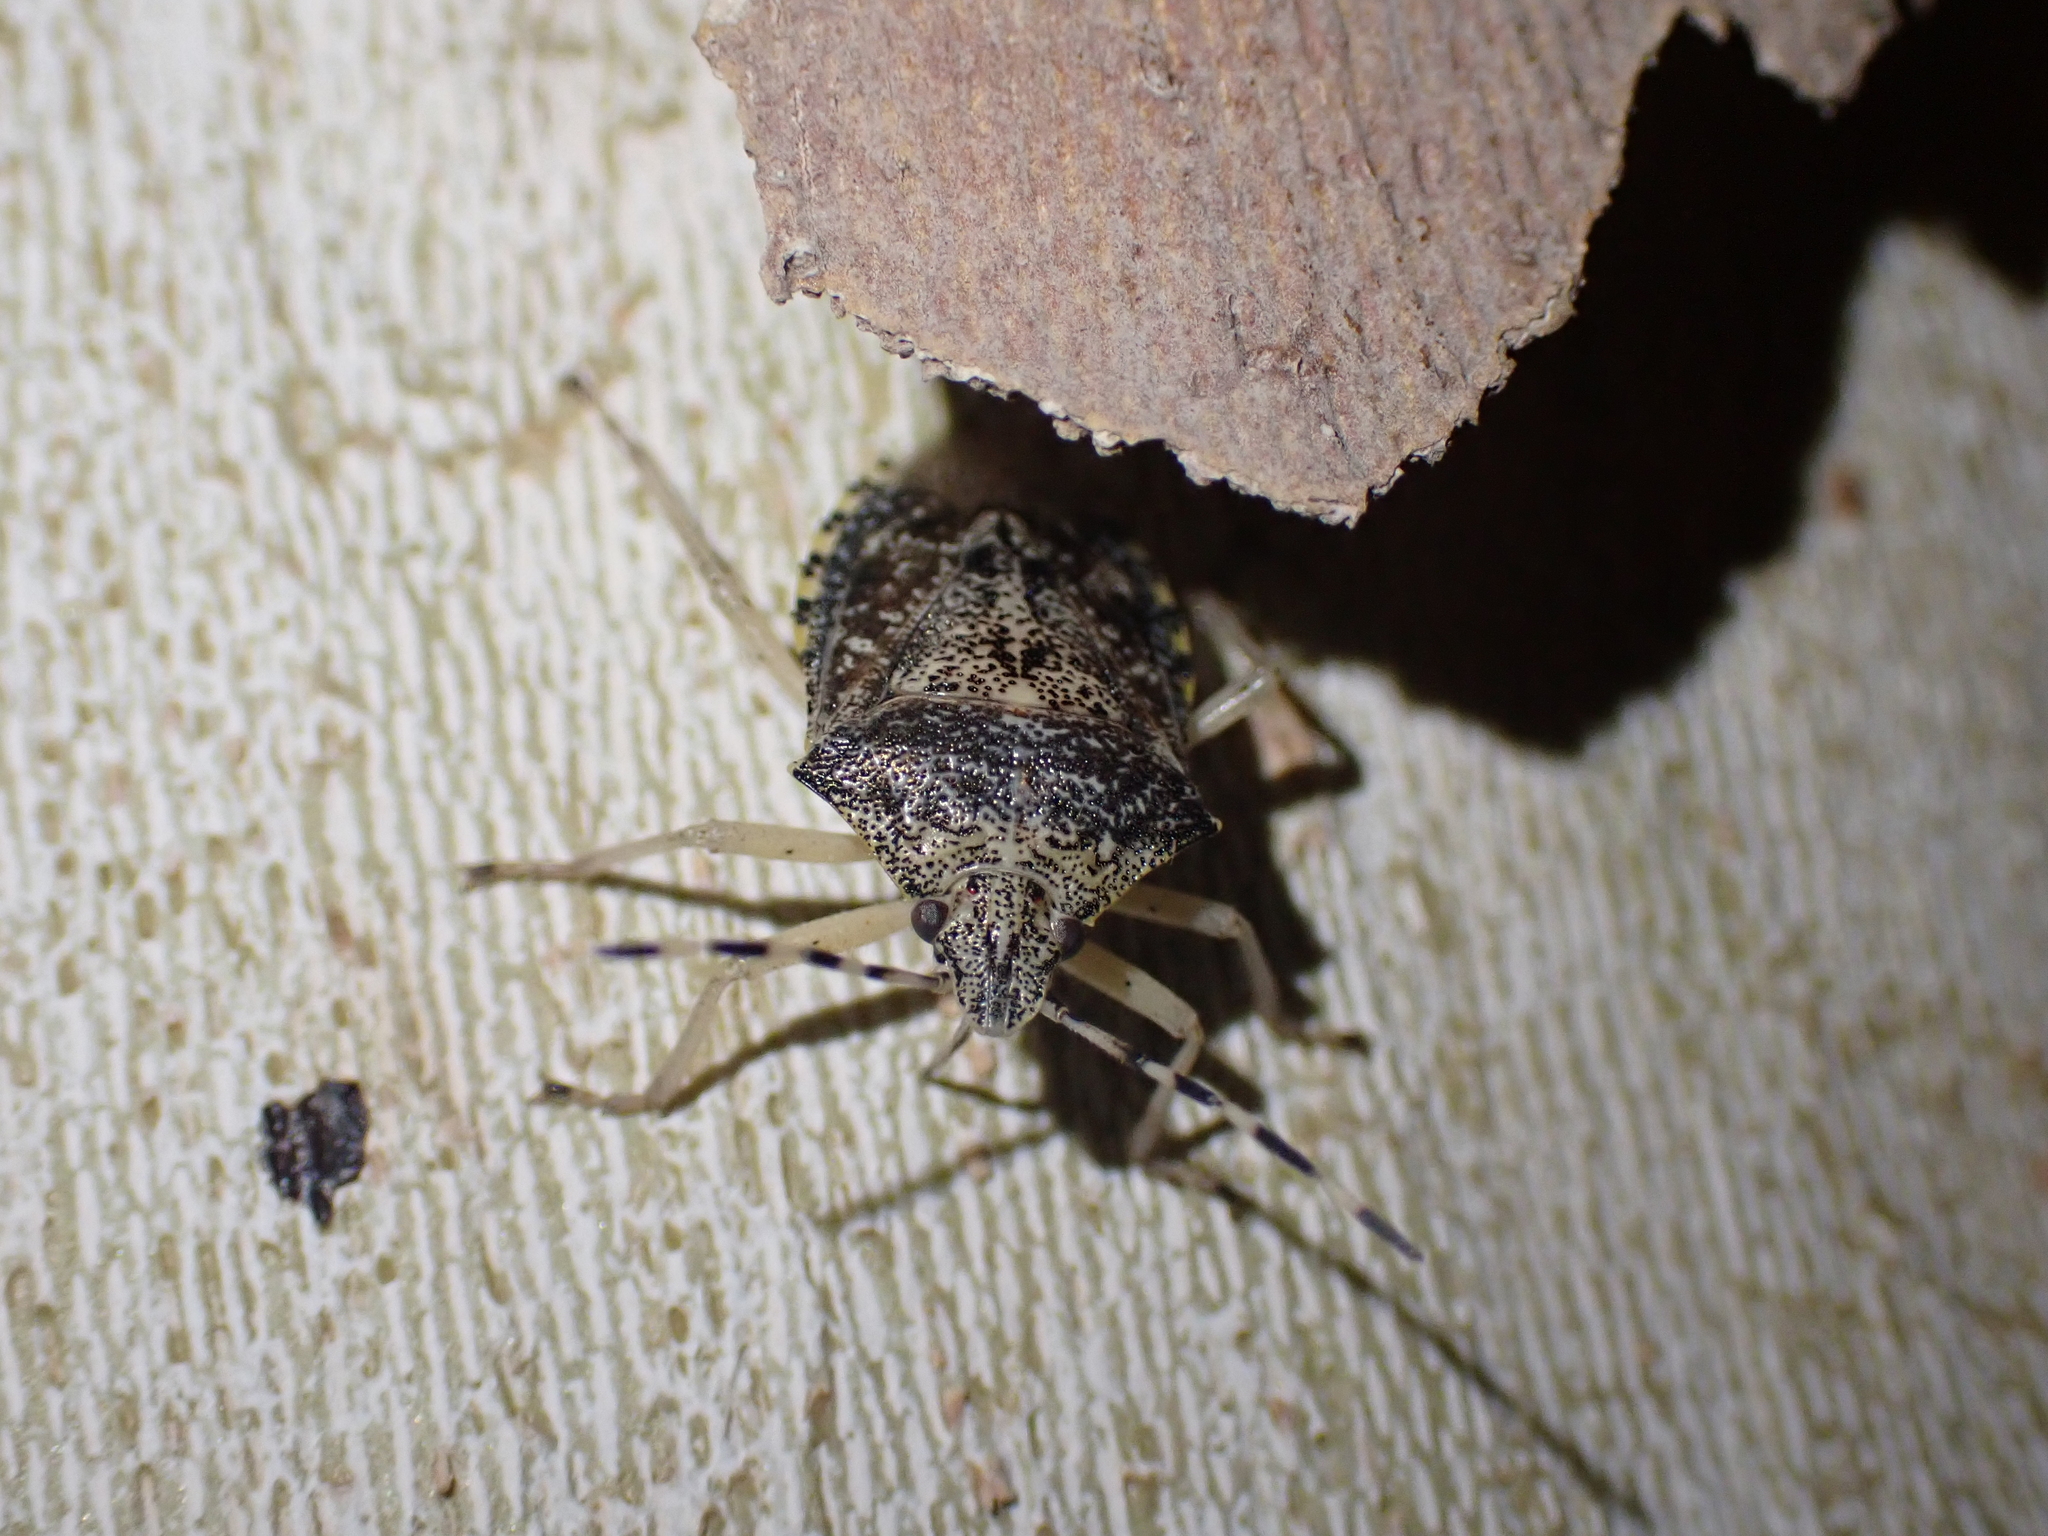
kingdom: Animalia
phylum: Arthropoda
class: Insecta
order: Hemiptera
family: Pentatomidae
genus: Rhaphigaster
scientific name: Rhaphigaster nebulosa
